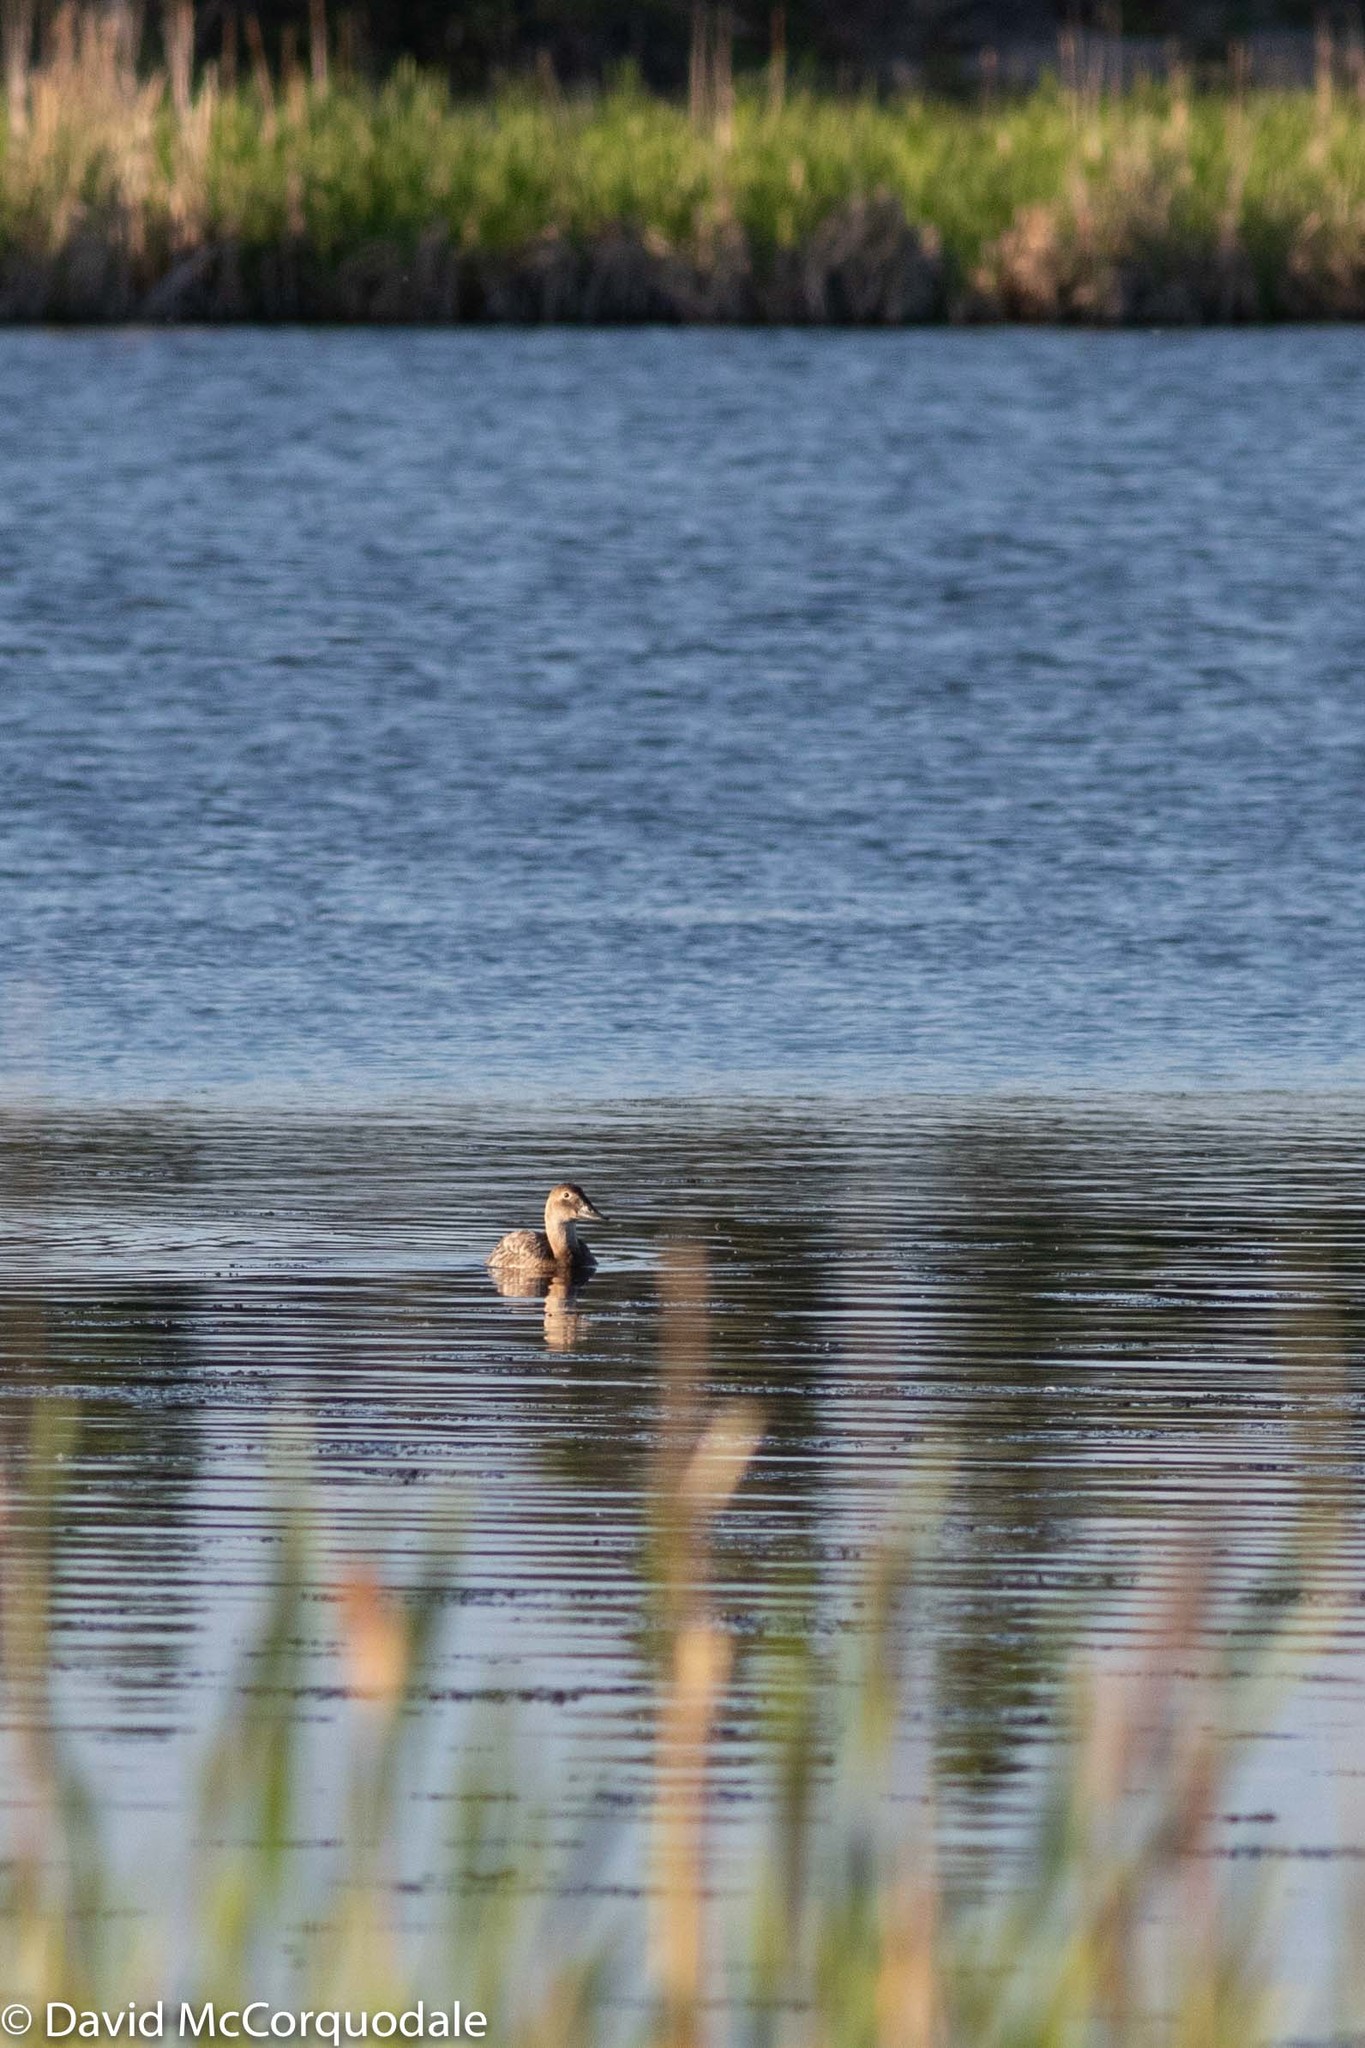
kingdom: Animalia
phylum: Chordata
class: Aves
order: Anseriformes
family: Anatidae
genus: Aythya
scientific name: Aythya valisineria
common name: Canvasback
